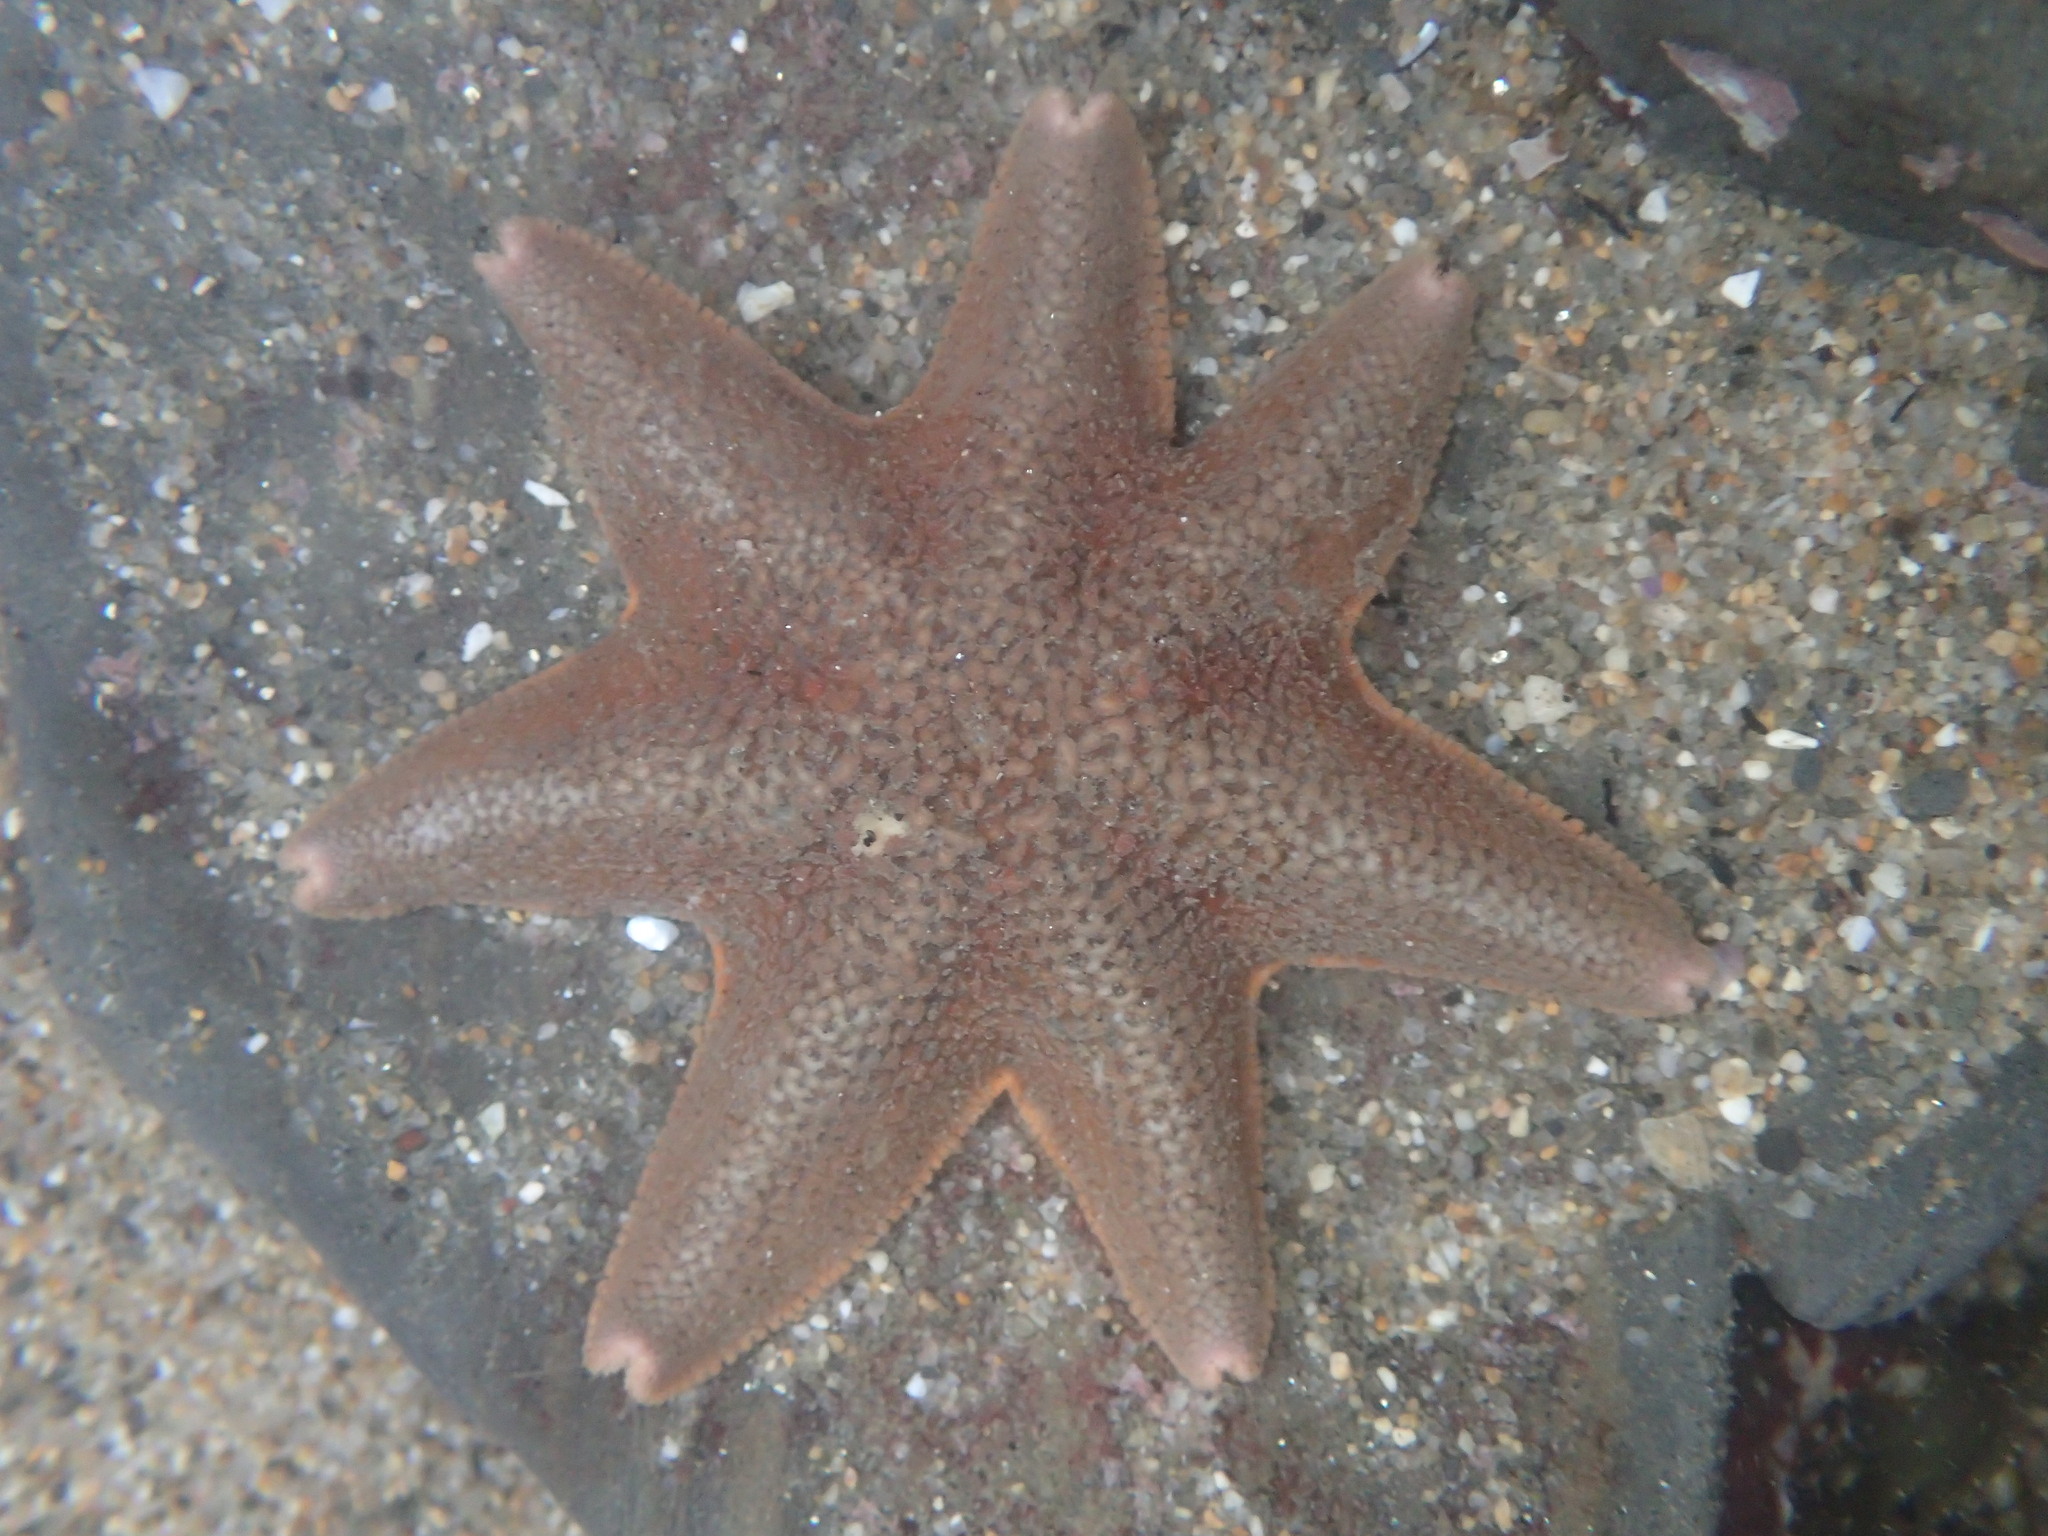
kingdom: Animalia
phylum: Echinodermata
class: Asteroidea
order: Valvatida
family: Asterinidae
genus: Patiria
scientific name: Patiria miniata
